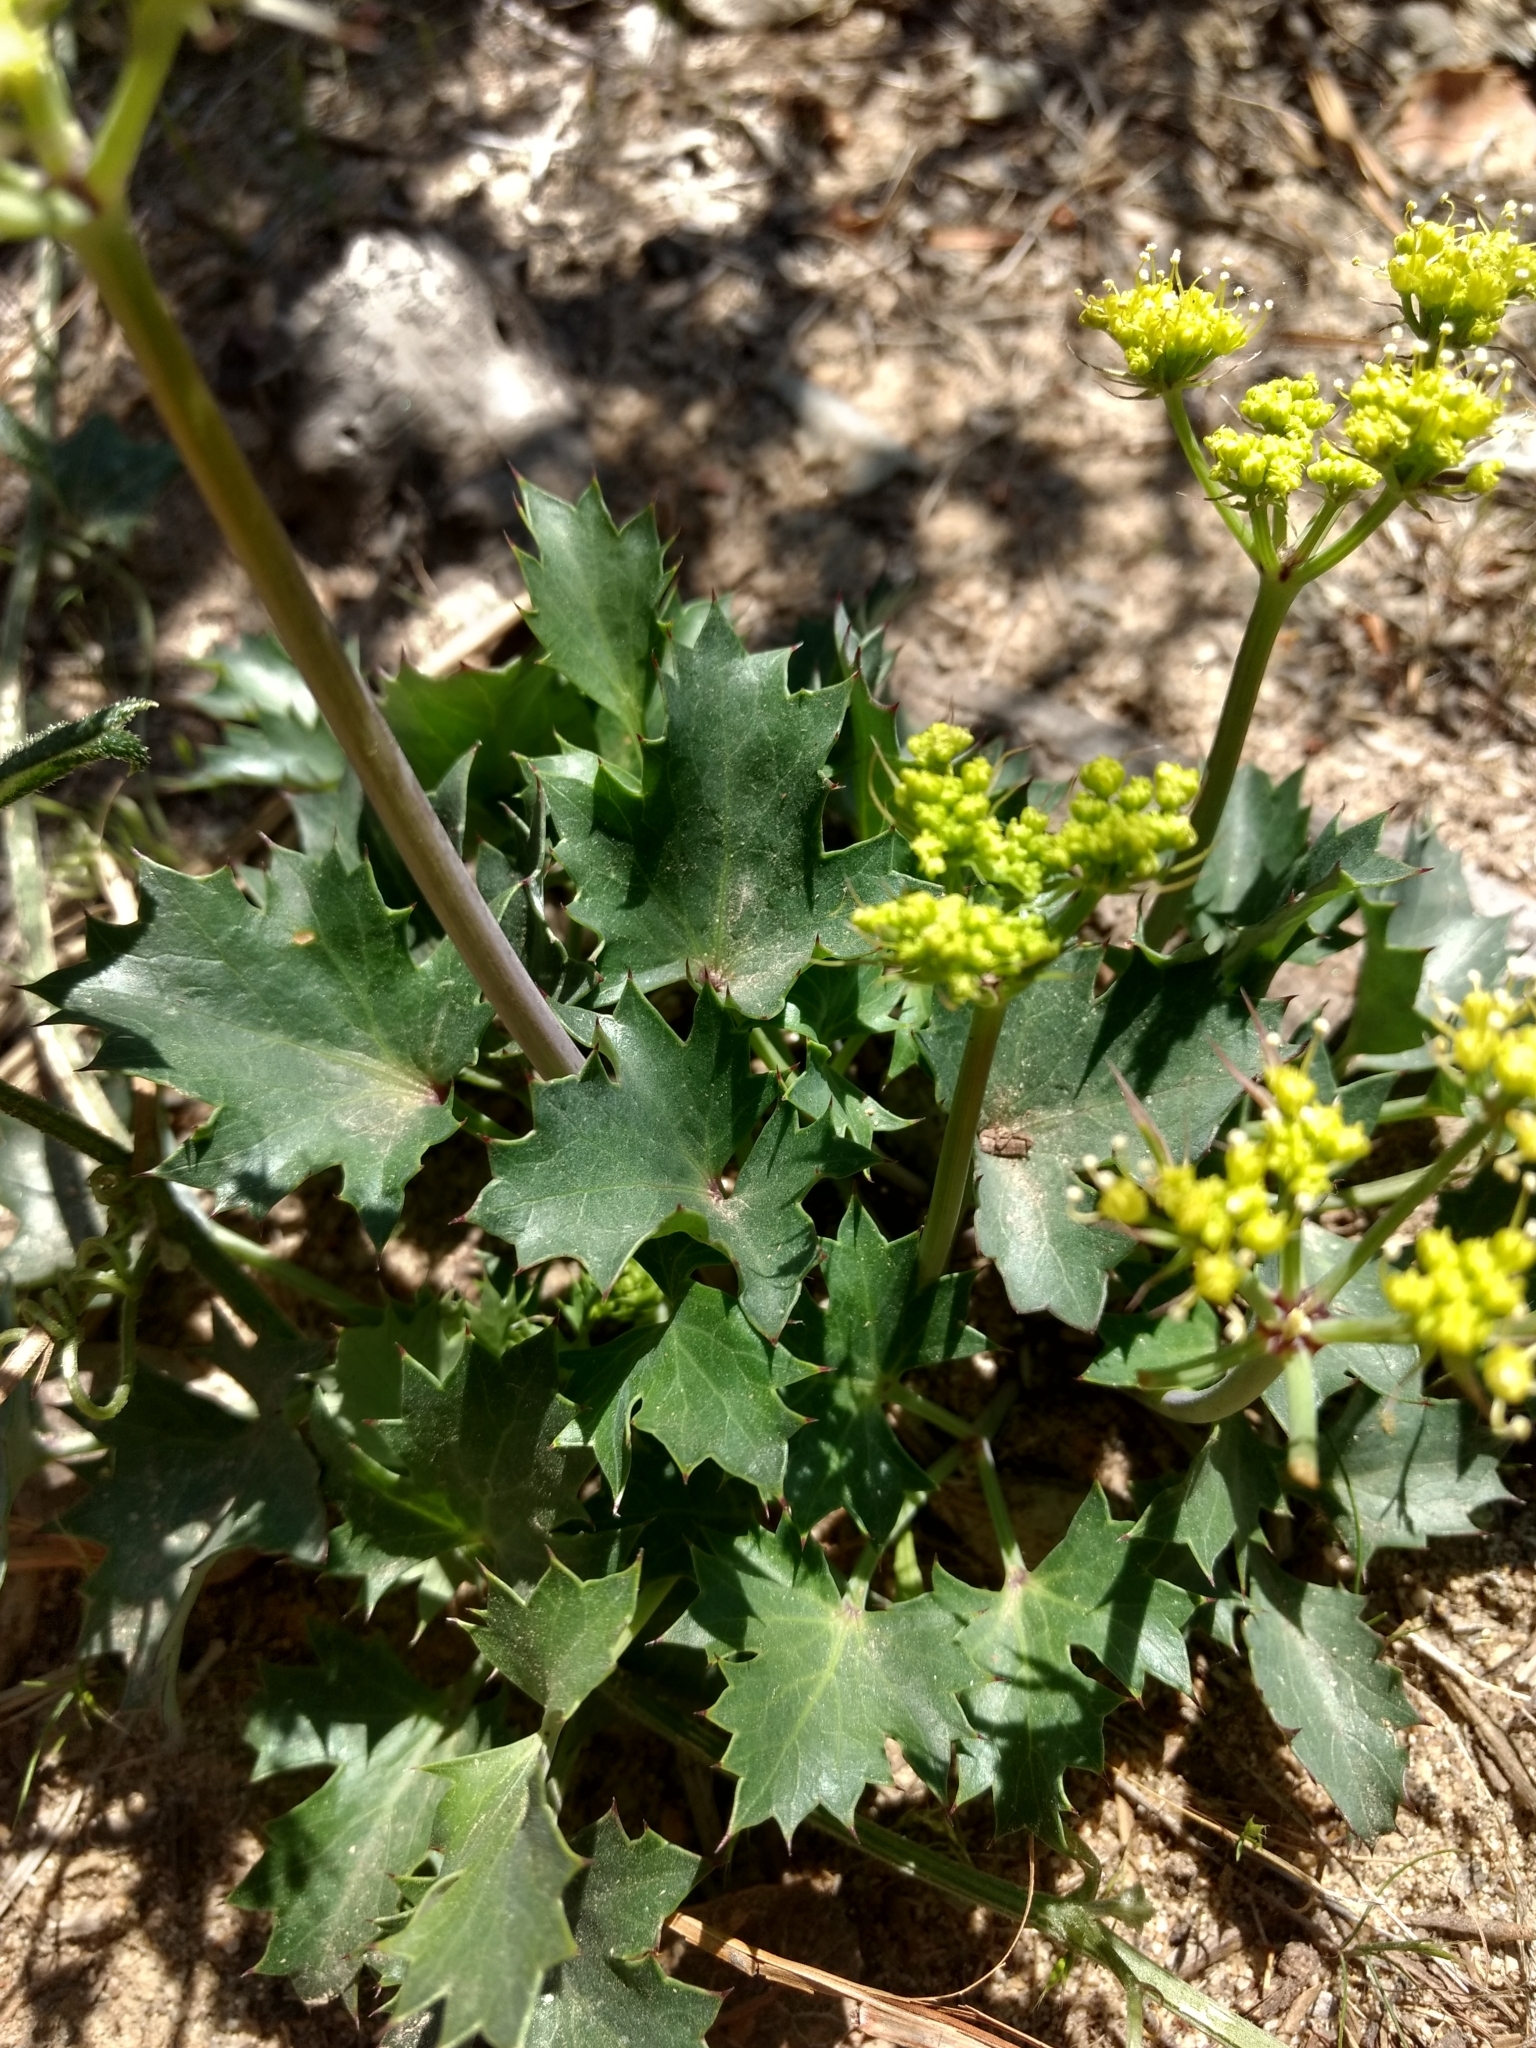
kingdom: Plantae
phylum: Tracheophyta
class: Magnoliopsida
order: Apiales
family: Apiaceae
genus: Lomatium
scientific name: Lomatium lucidum
